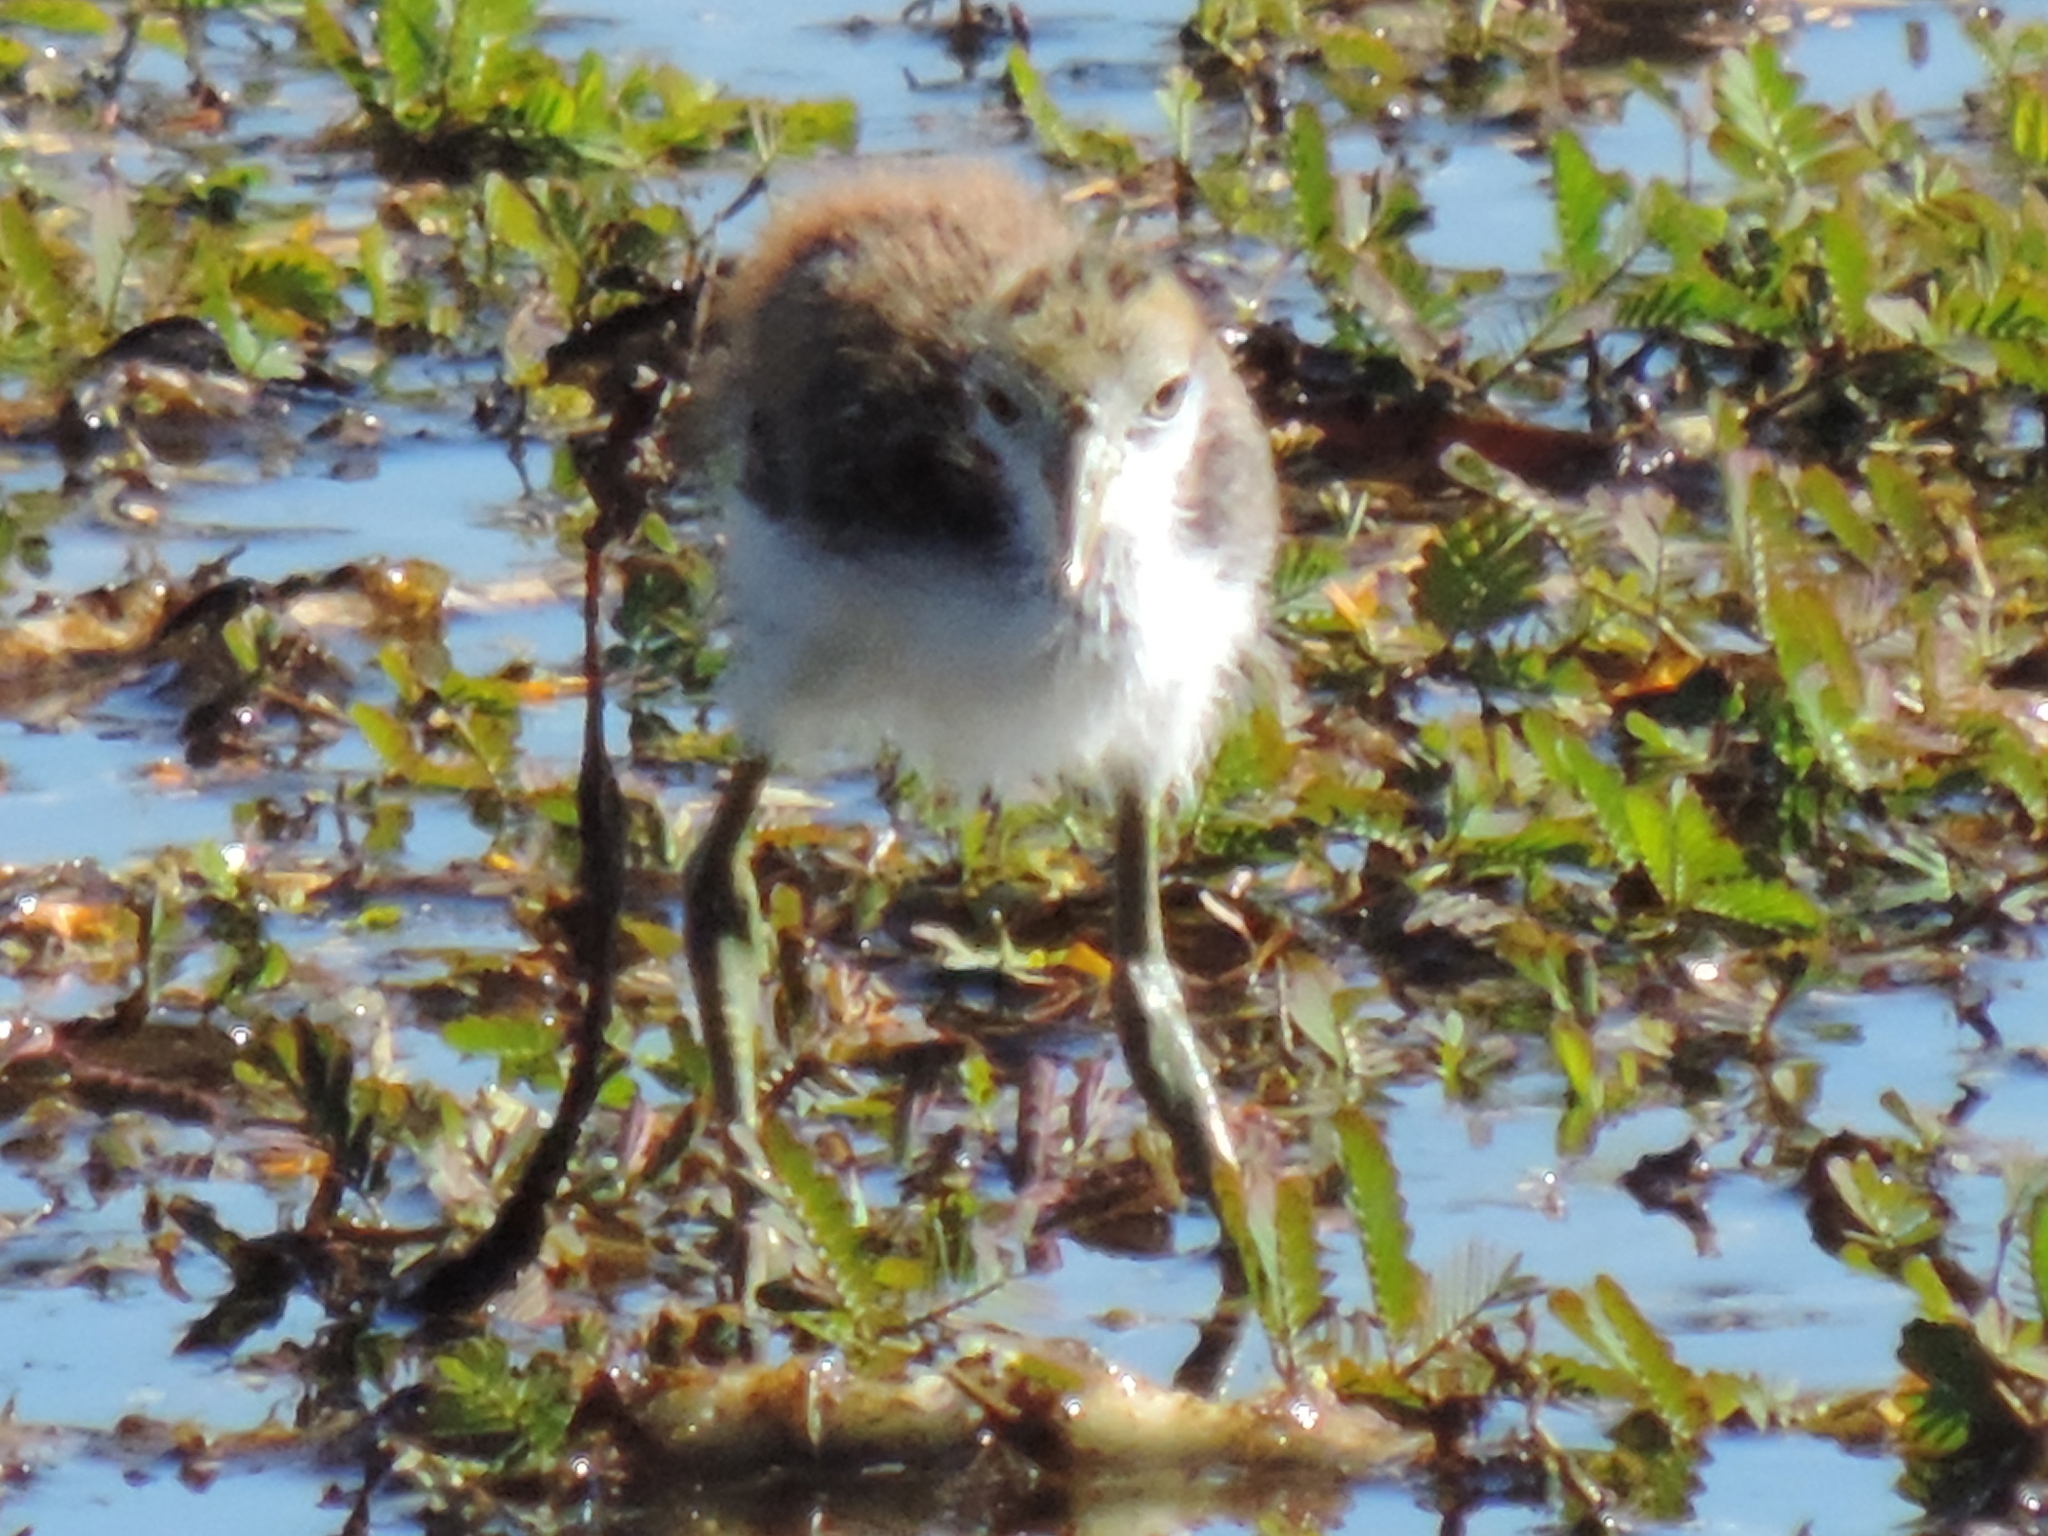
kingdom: Animalia
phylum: Chordata
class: Aves
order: Charadriiformes
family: Jacanidae
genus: Jacana
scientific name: Jacana spinosa
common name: Northern jacana
